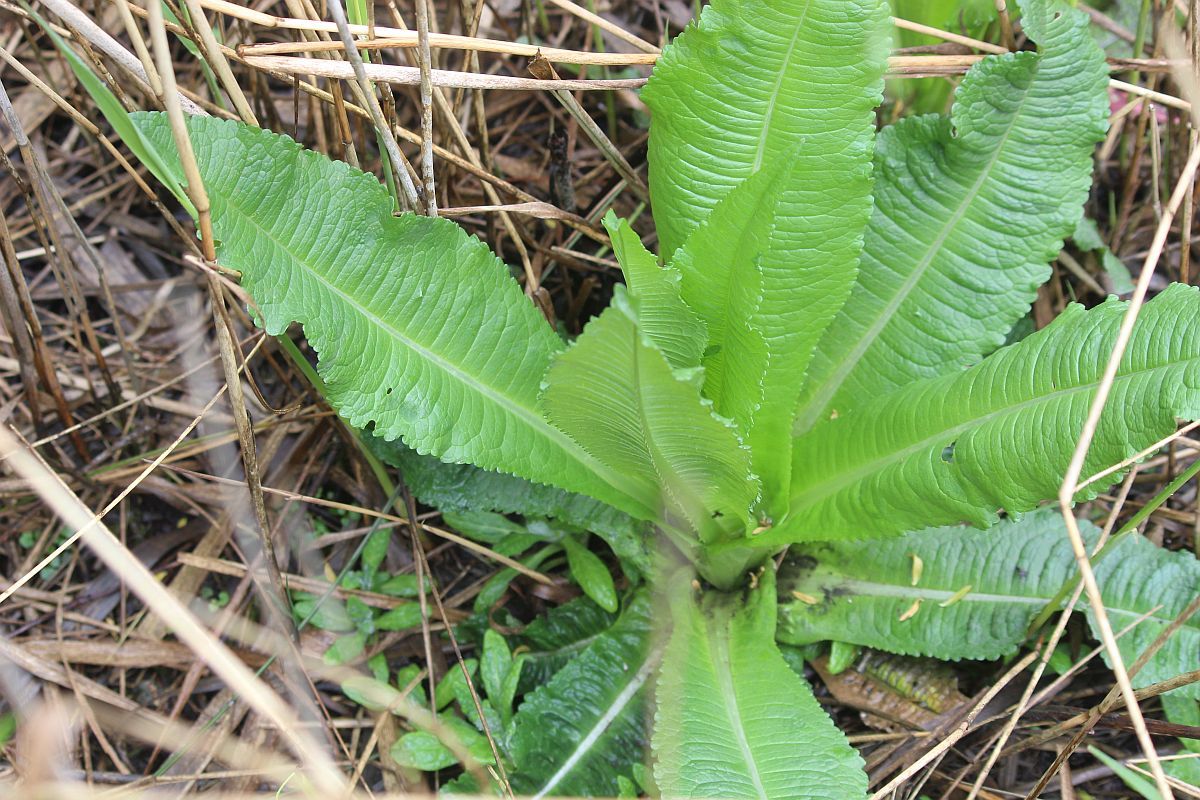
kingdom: Plantae
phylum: Tracheophyta
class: Magnoliopsida
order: Dipsacales
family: Caprifoliaceae
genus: Dipsacus
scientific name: Dipsacus fullonum
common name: Teasel
